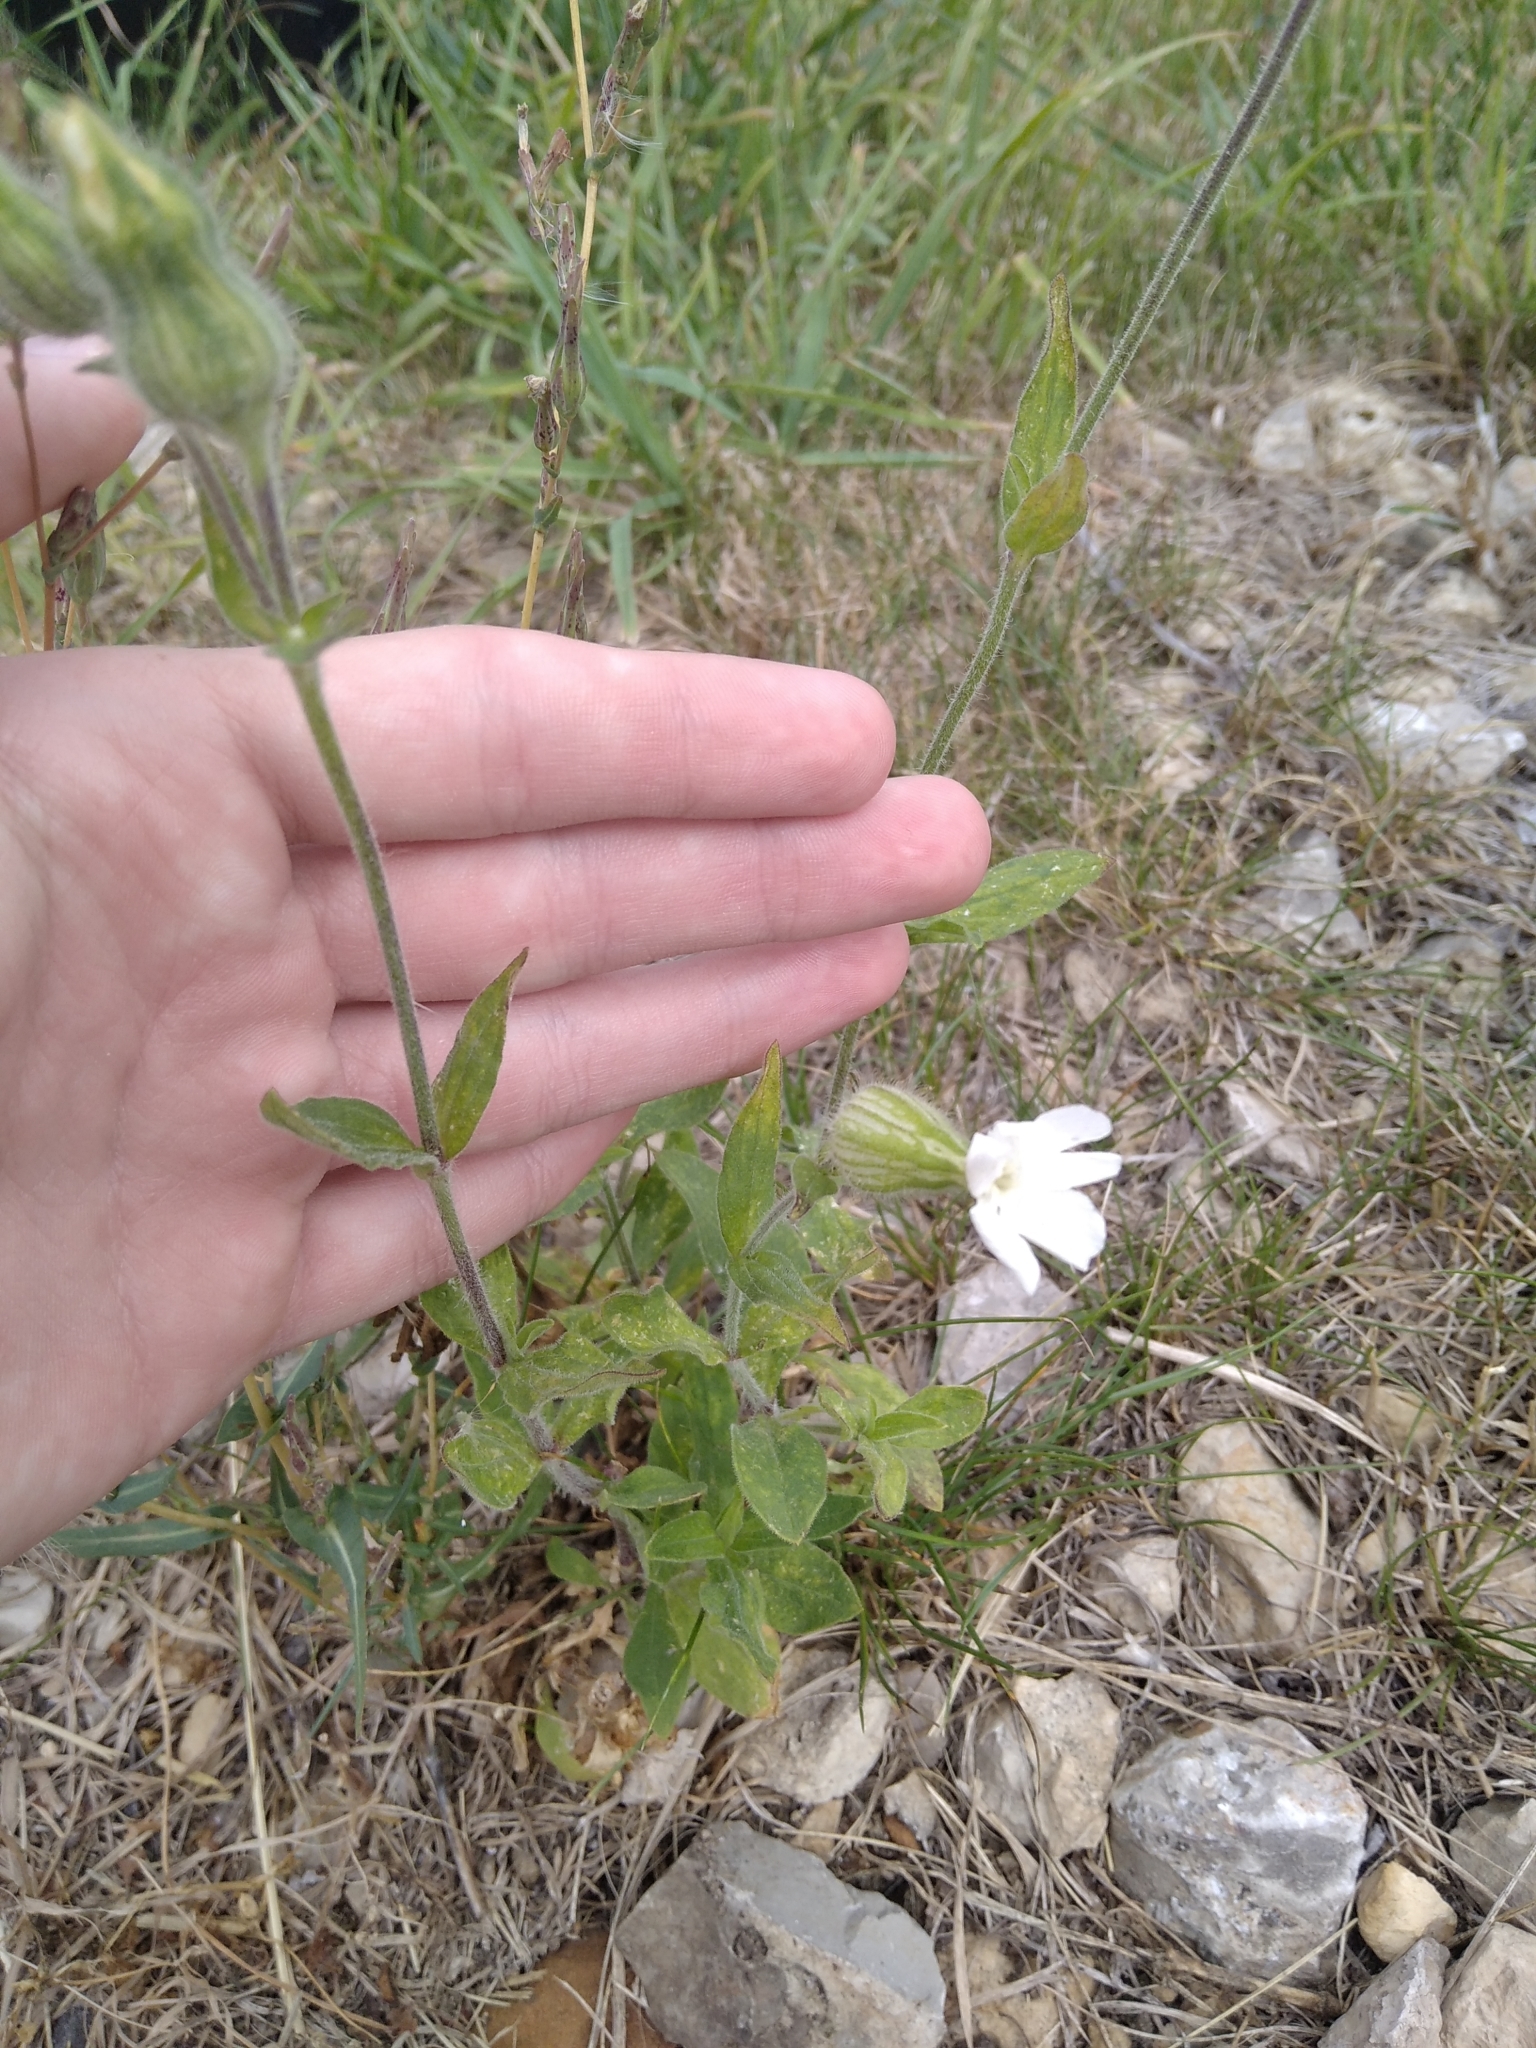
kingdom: Plantae
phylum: Tracheophyta
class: Magnoliopsida
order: Caryophyllales
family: Caryophyllaceae
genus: Silene
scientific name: Silene latifolia
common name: White campion
